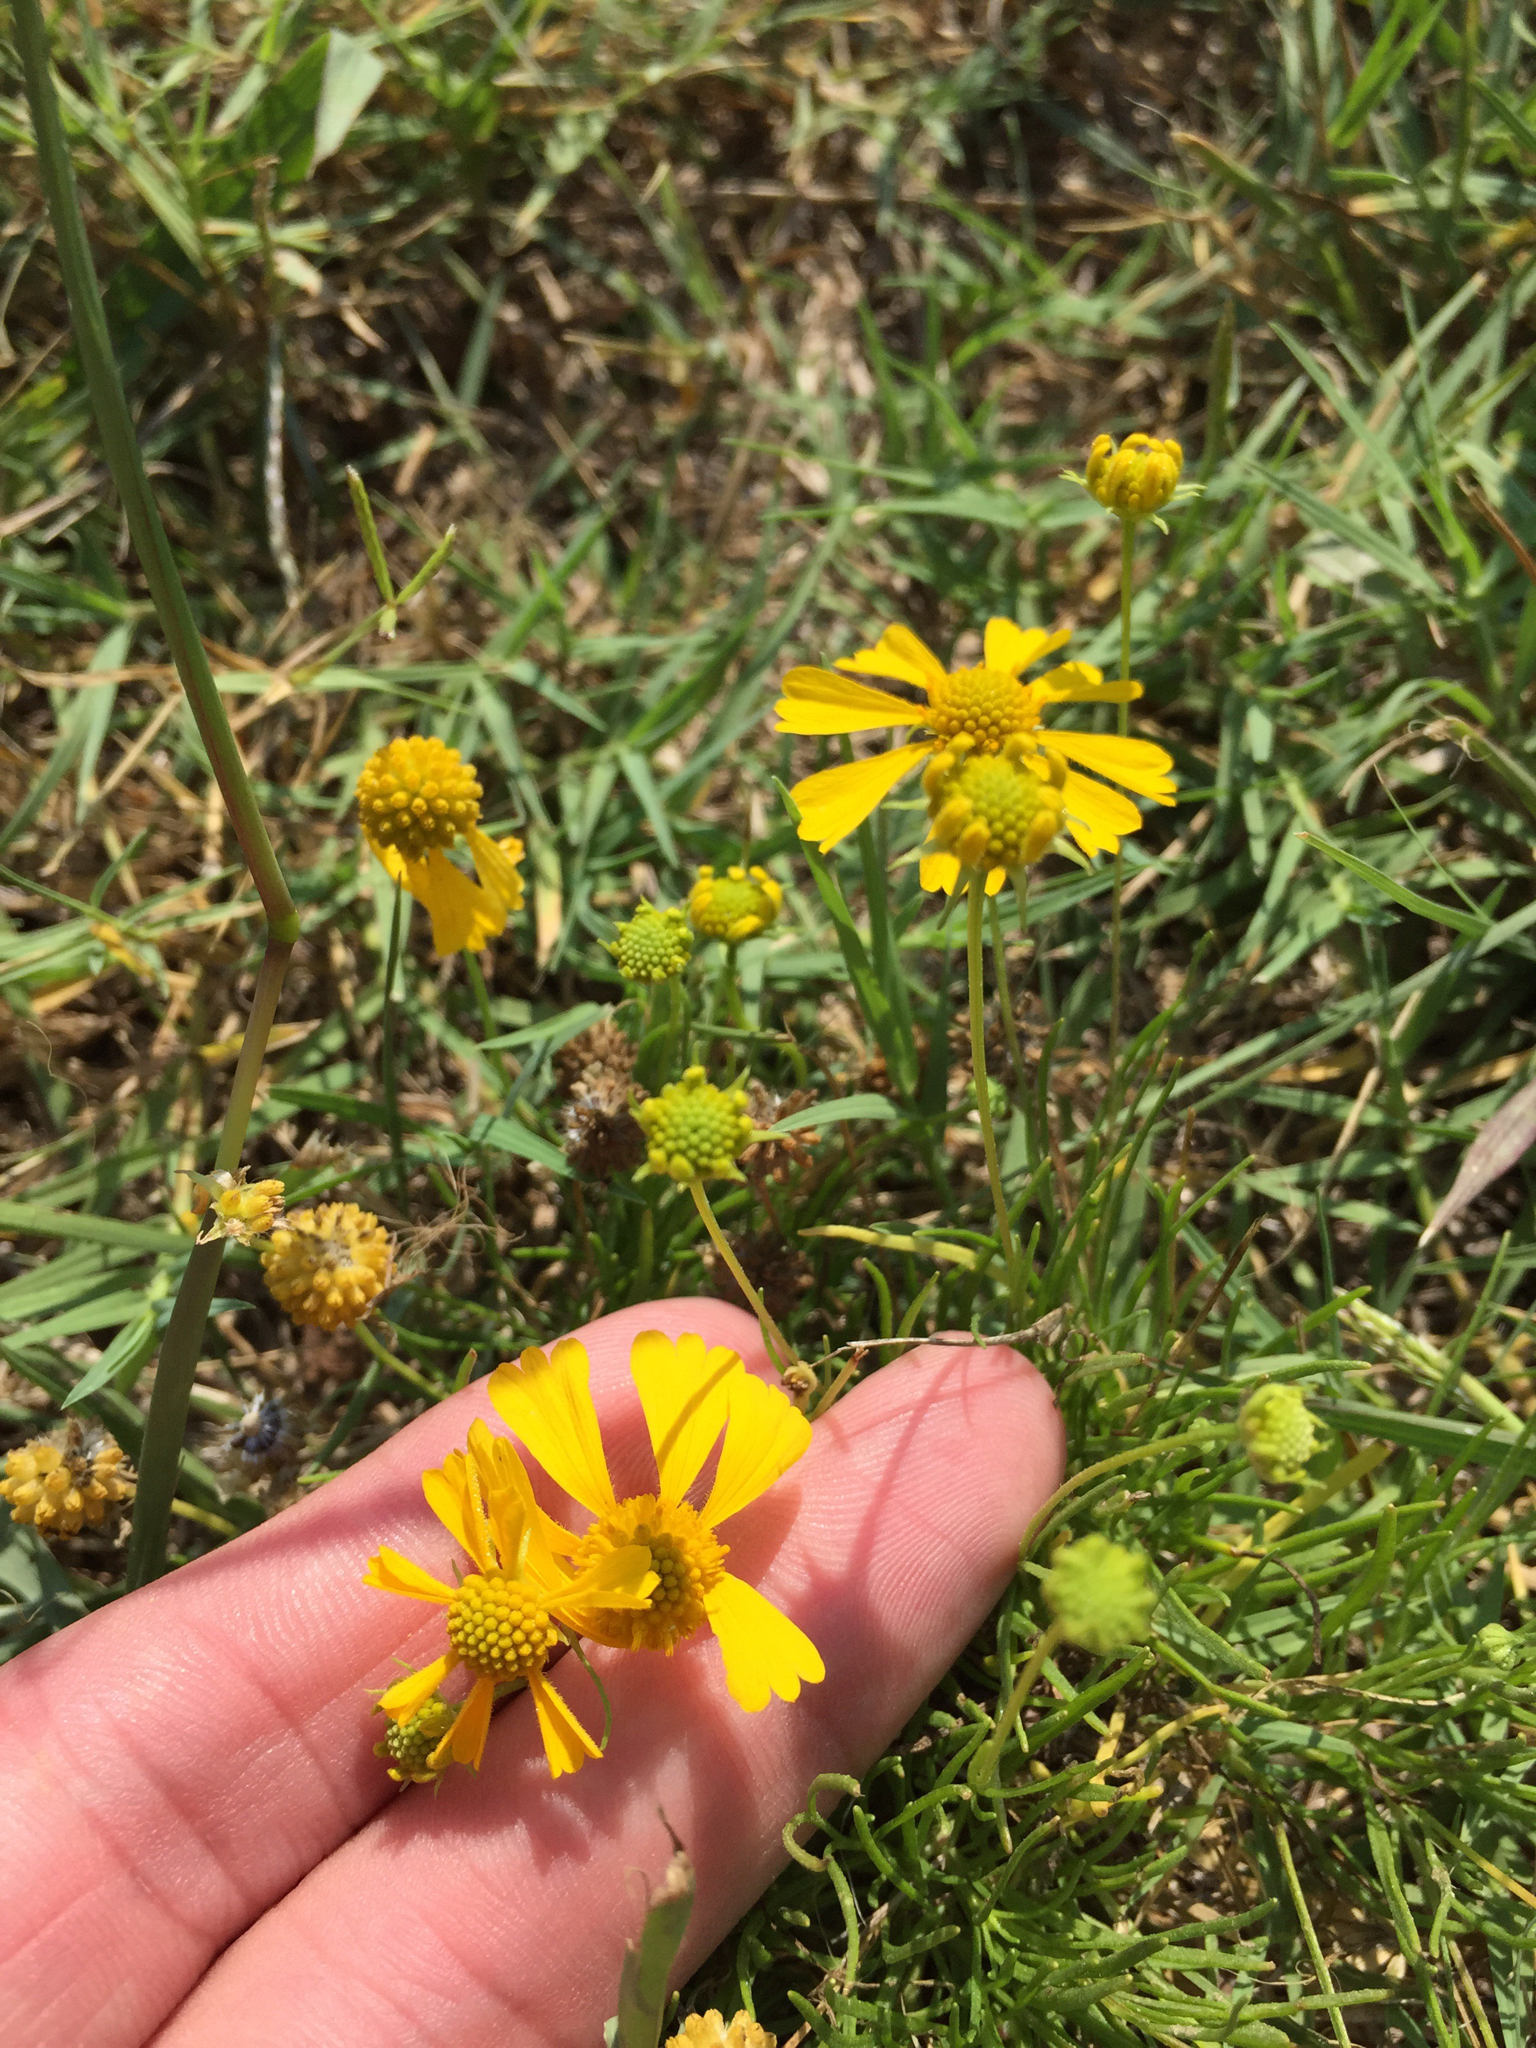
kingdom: Plantae
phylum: Tracheophyta
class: Magnoliopsida
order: Asterales
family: Asteraceae
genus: Helenium
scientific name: Helenium amarum
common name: Bitter sneezeweed
